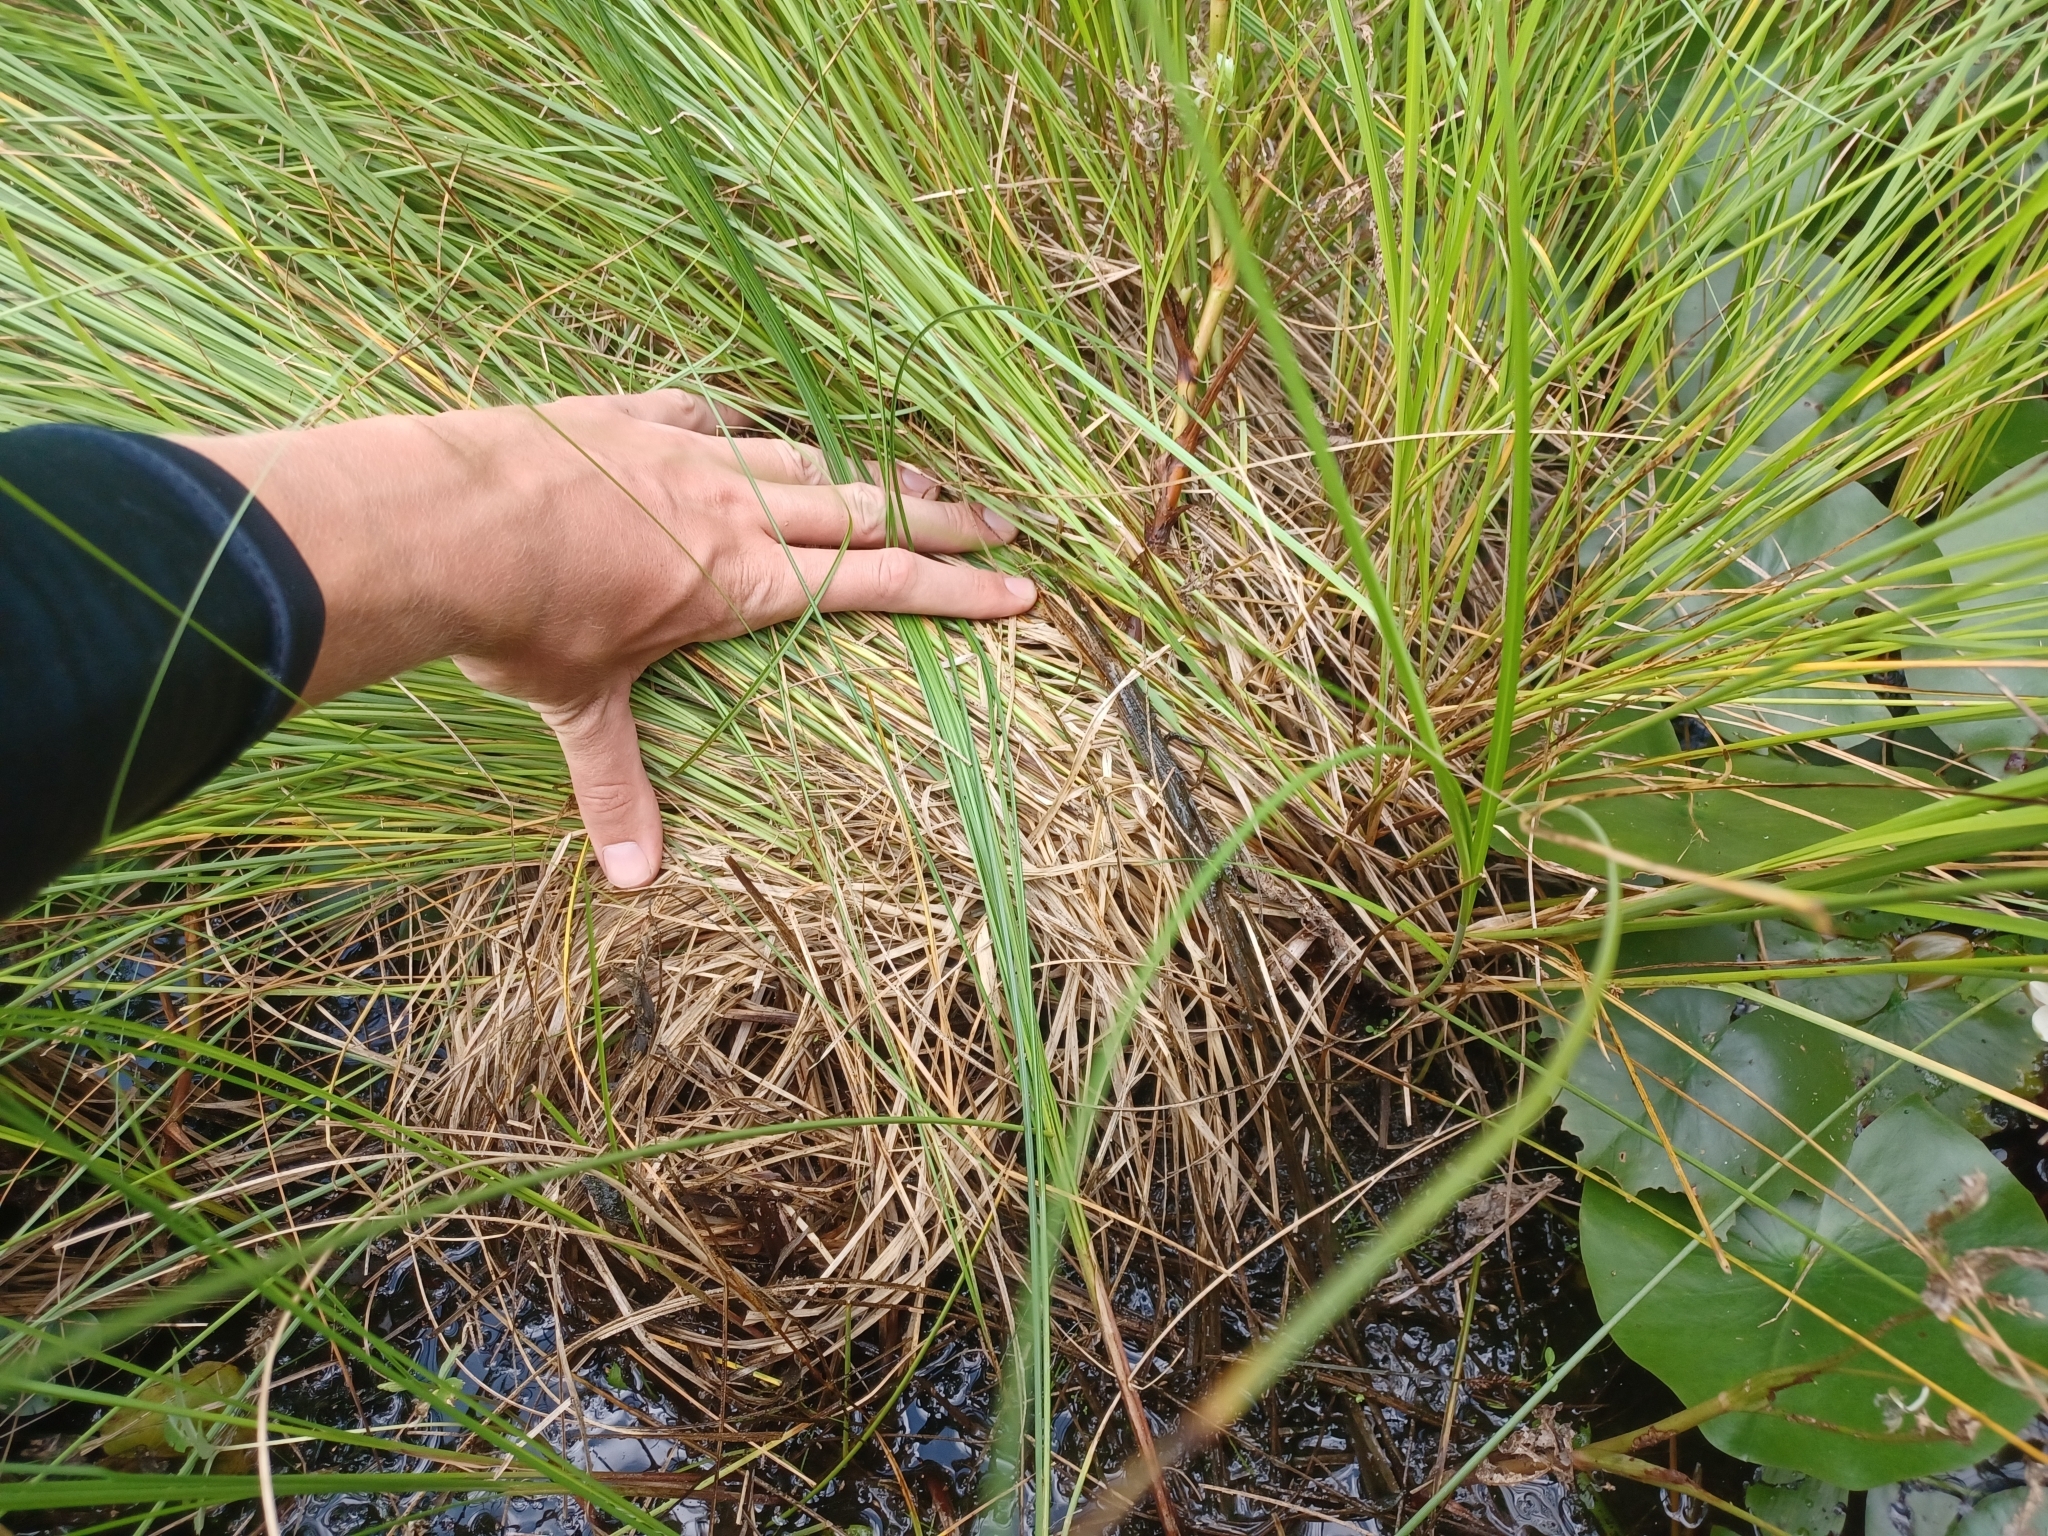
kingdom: Plantae
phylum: Tracheophyta
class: Liliopsida
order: Poales
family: Cyperaceae
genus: Carex
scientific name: Carex diandra
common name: Lesser tussock-sedge
